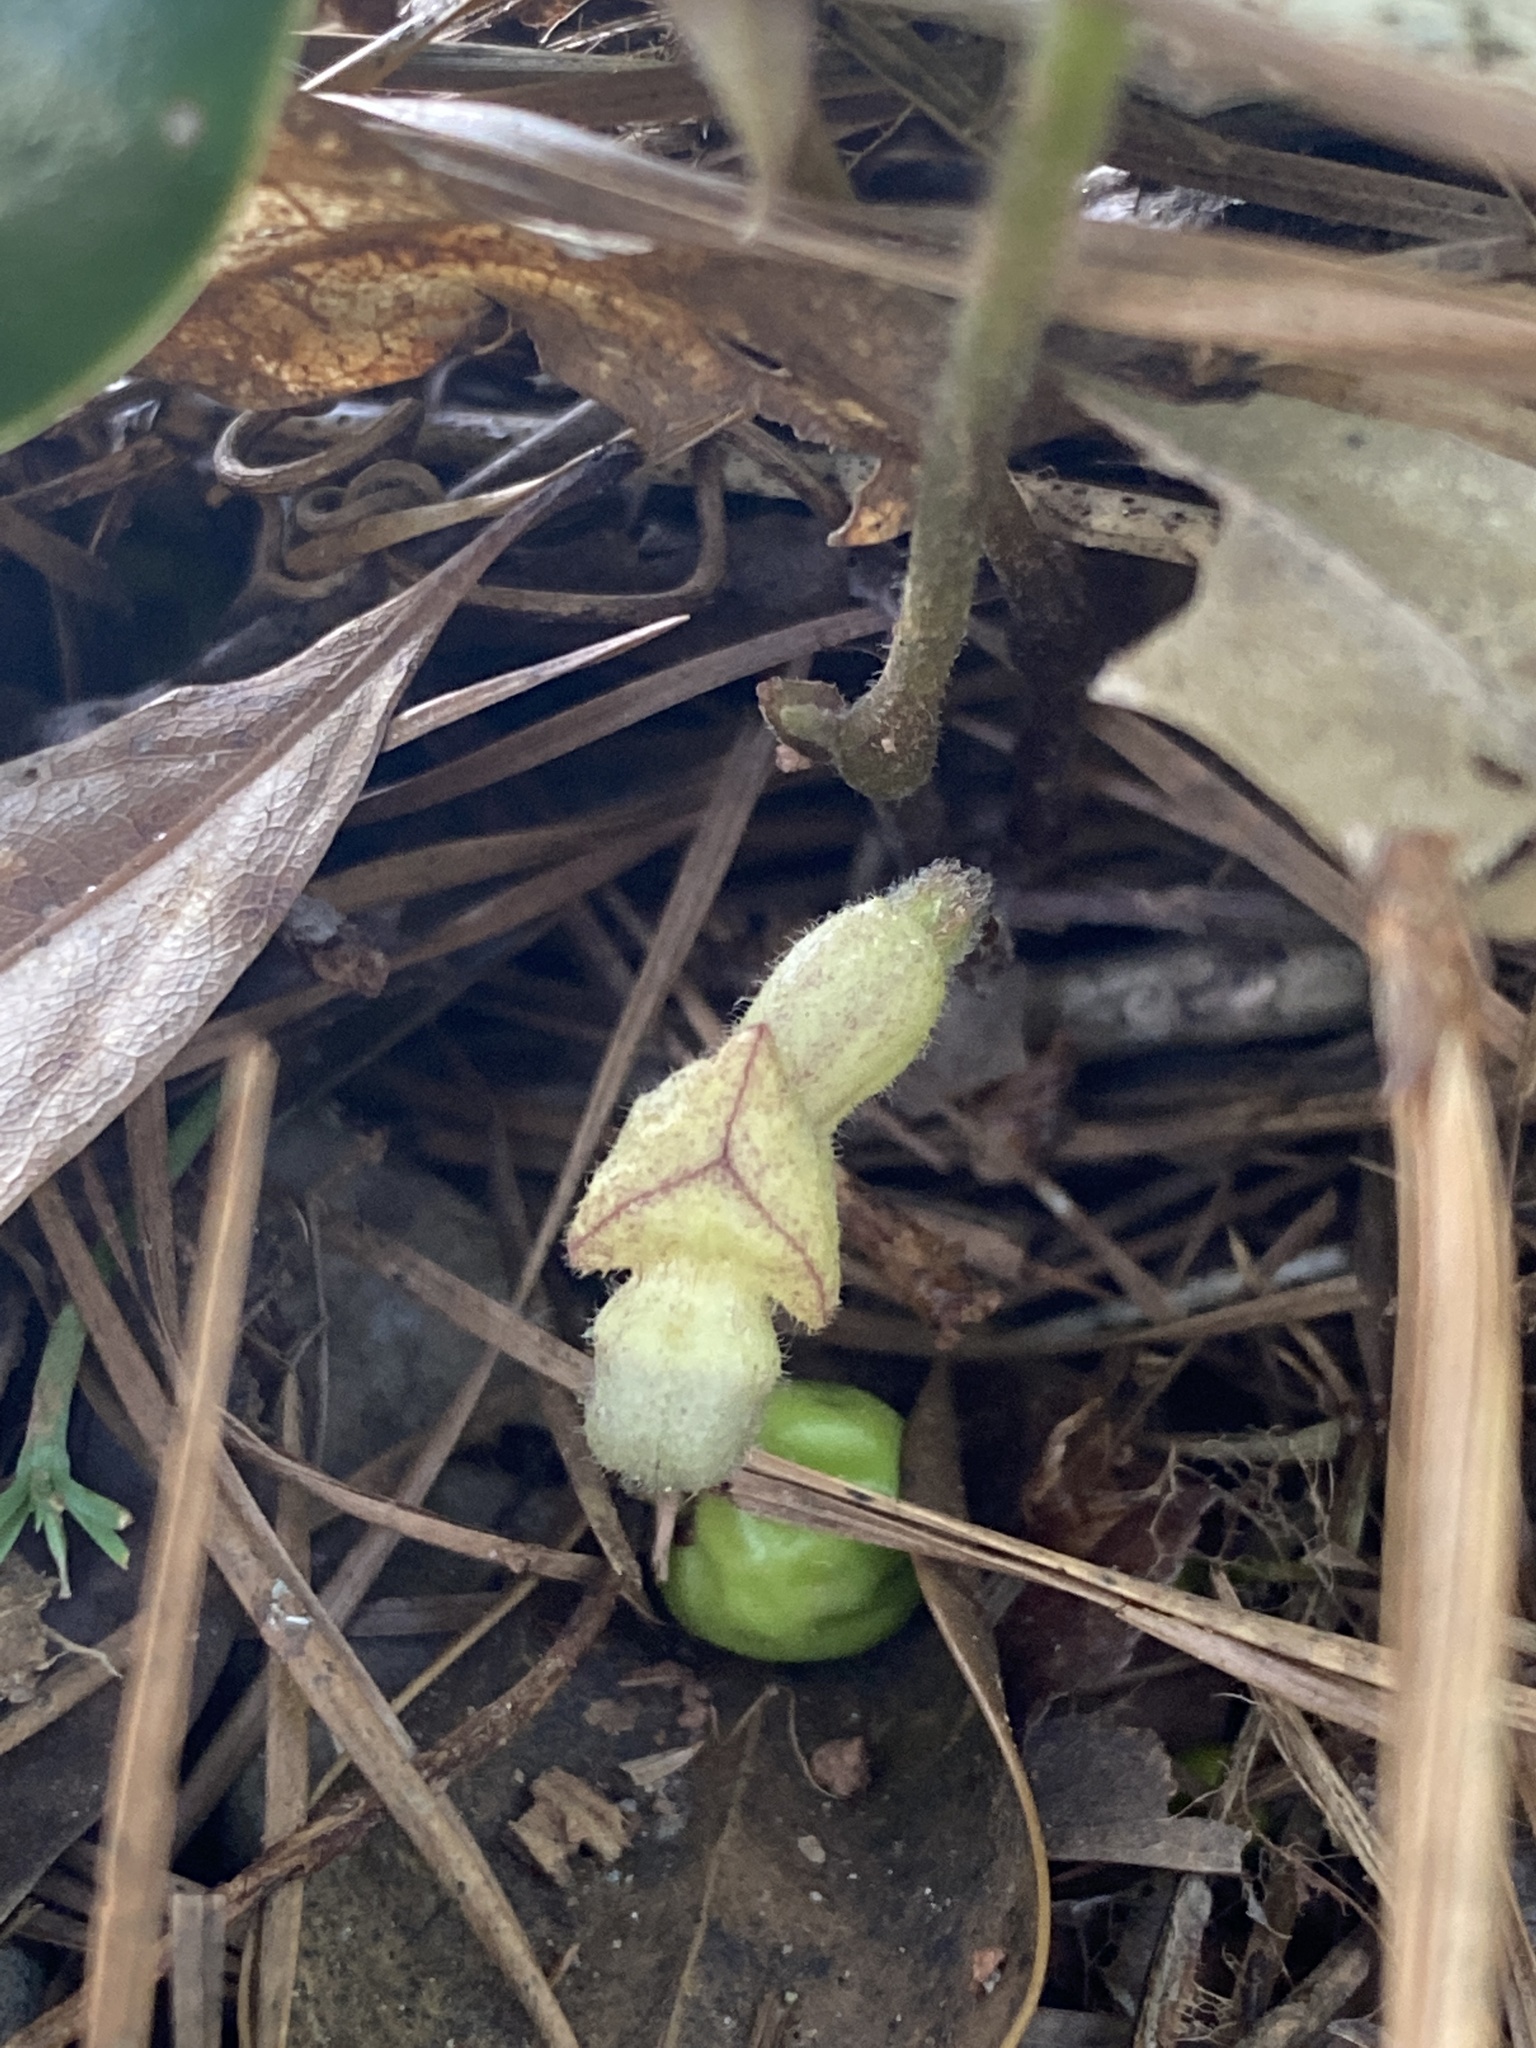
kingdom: Plantae
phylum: Tracheophyta
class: Magnoliopsida
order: Piperales
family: Aristolochiaceae
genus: Endodeca
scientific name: Endodeca serpentaria
